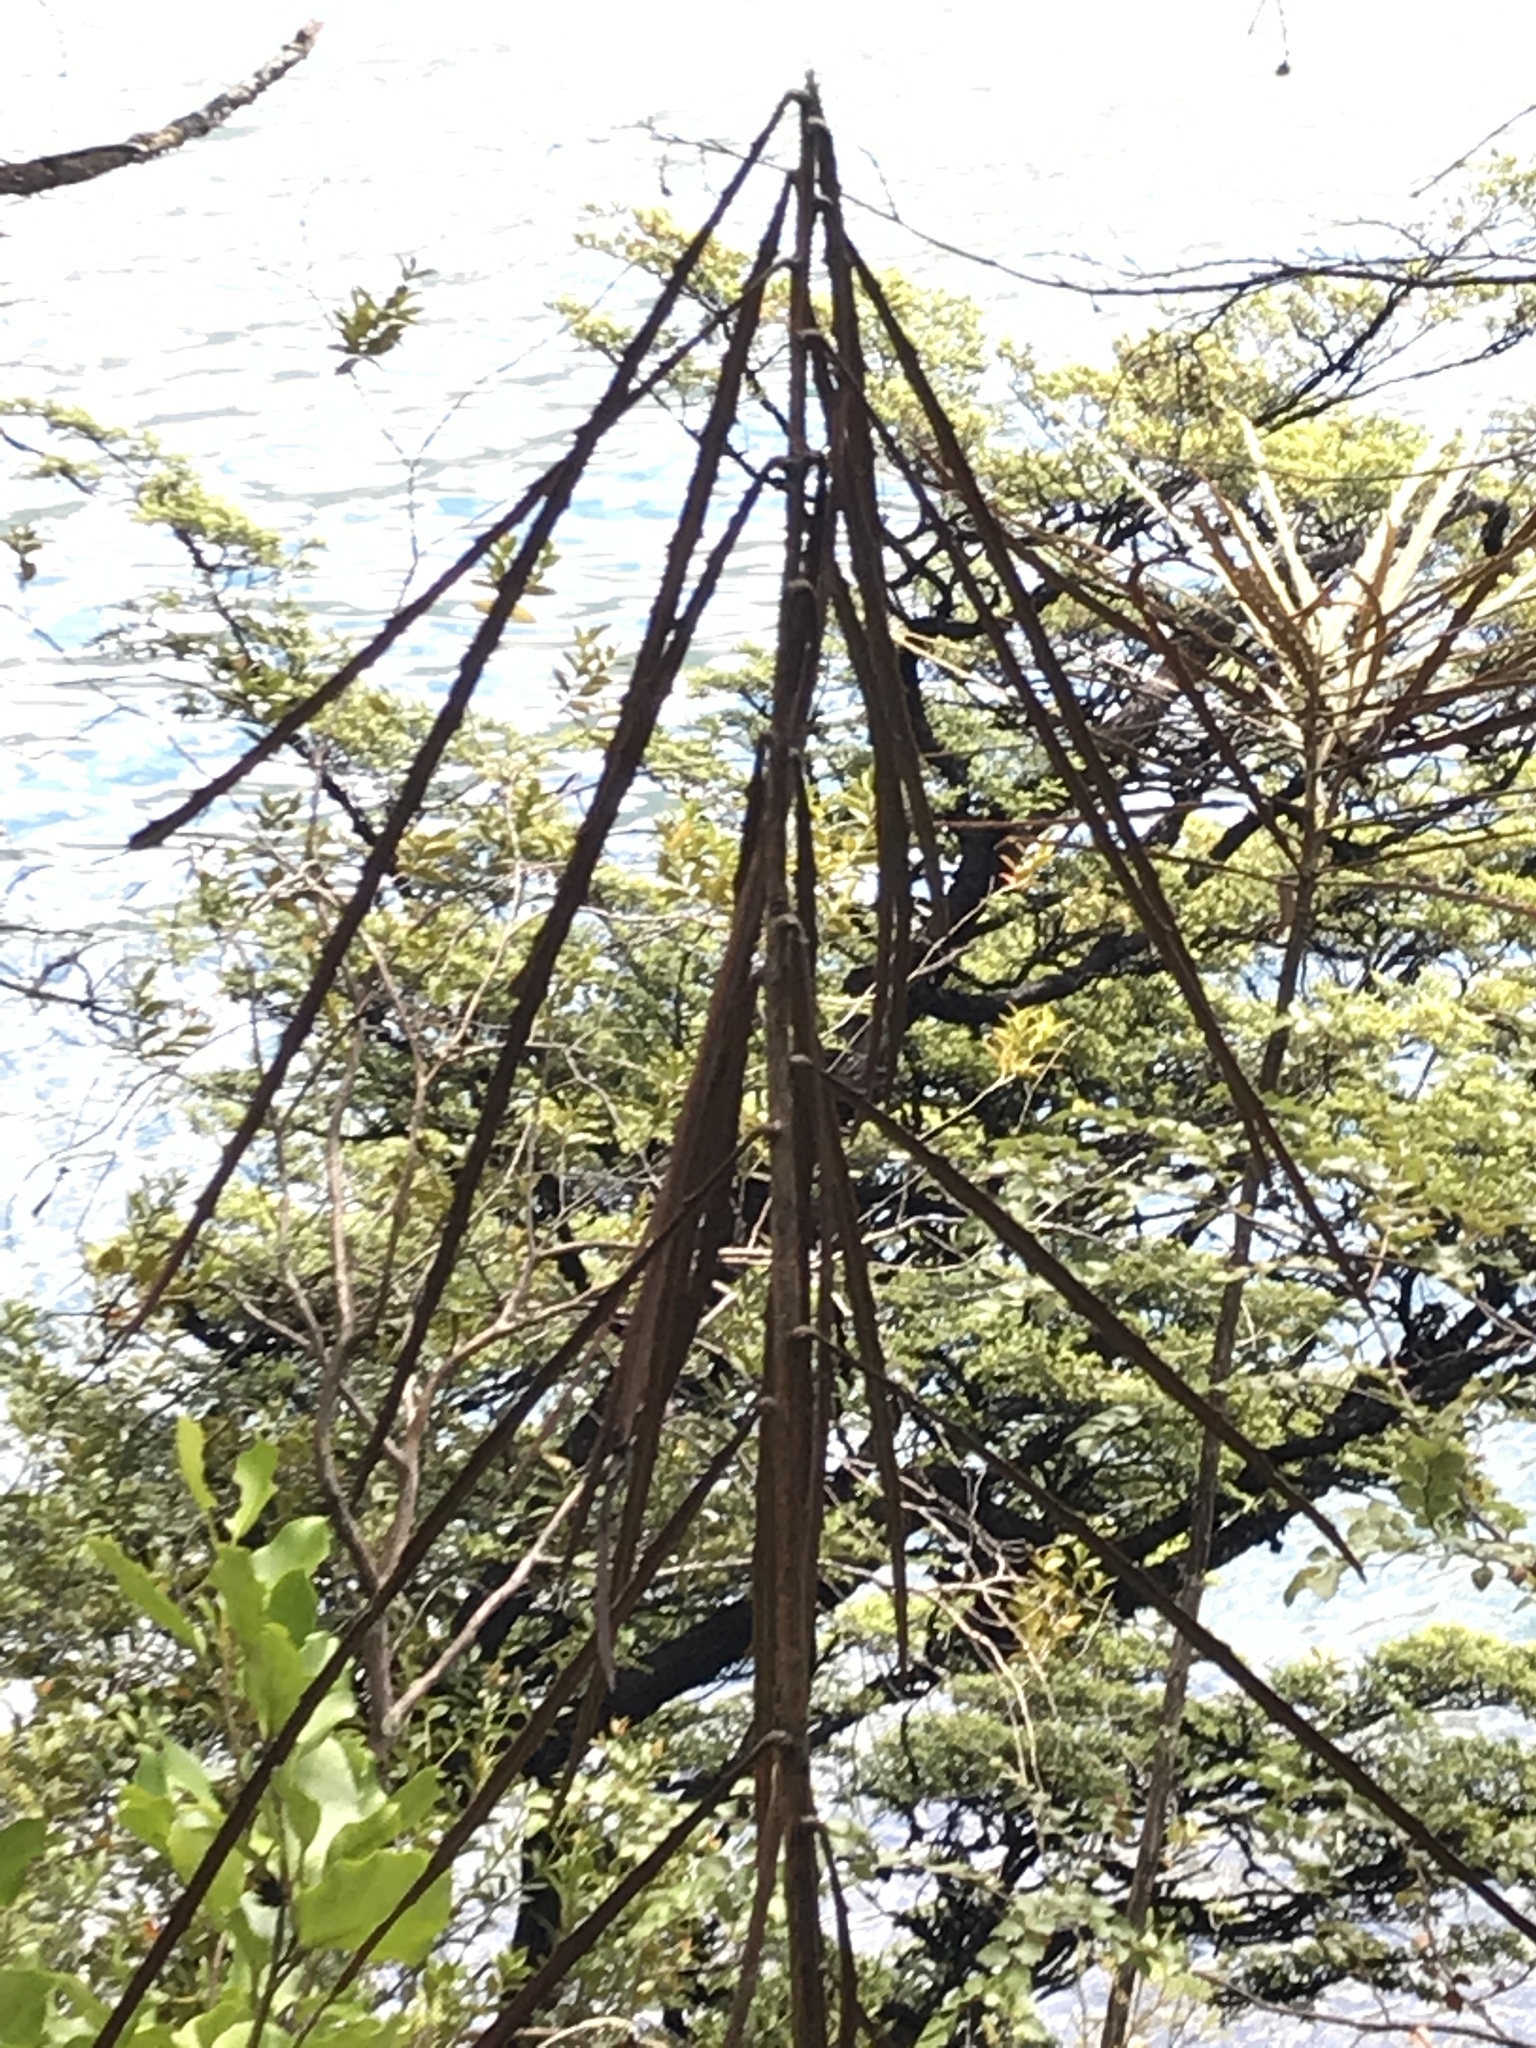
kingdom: Plantae
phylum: Tracheophyta
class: Magnoliopsida
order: Apiales
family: Araliaceae
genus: Pseudopanax
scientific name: Pseudopanax crassifolius
